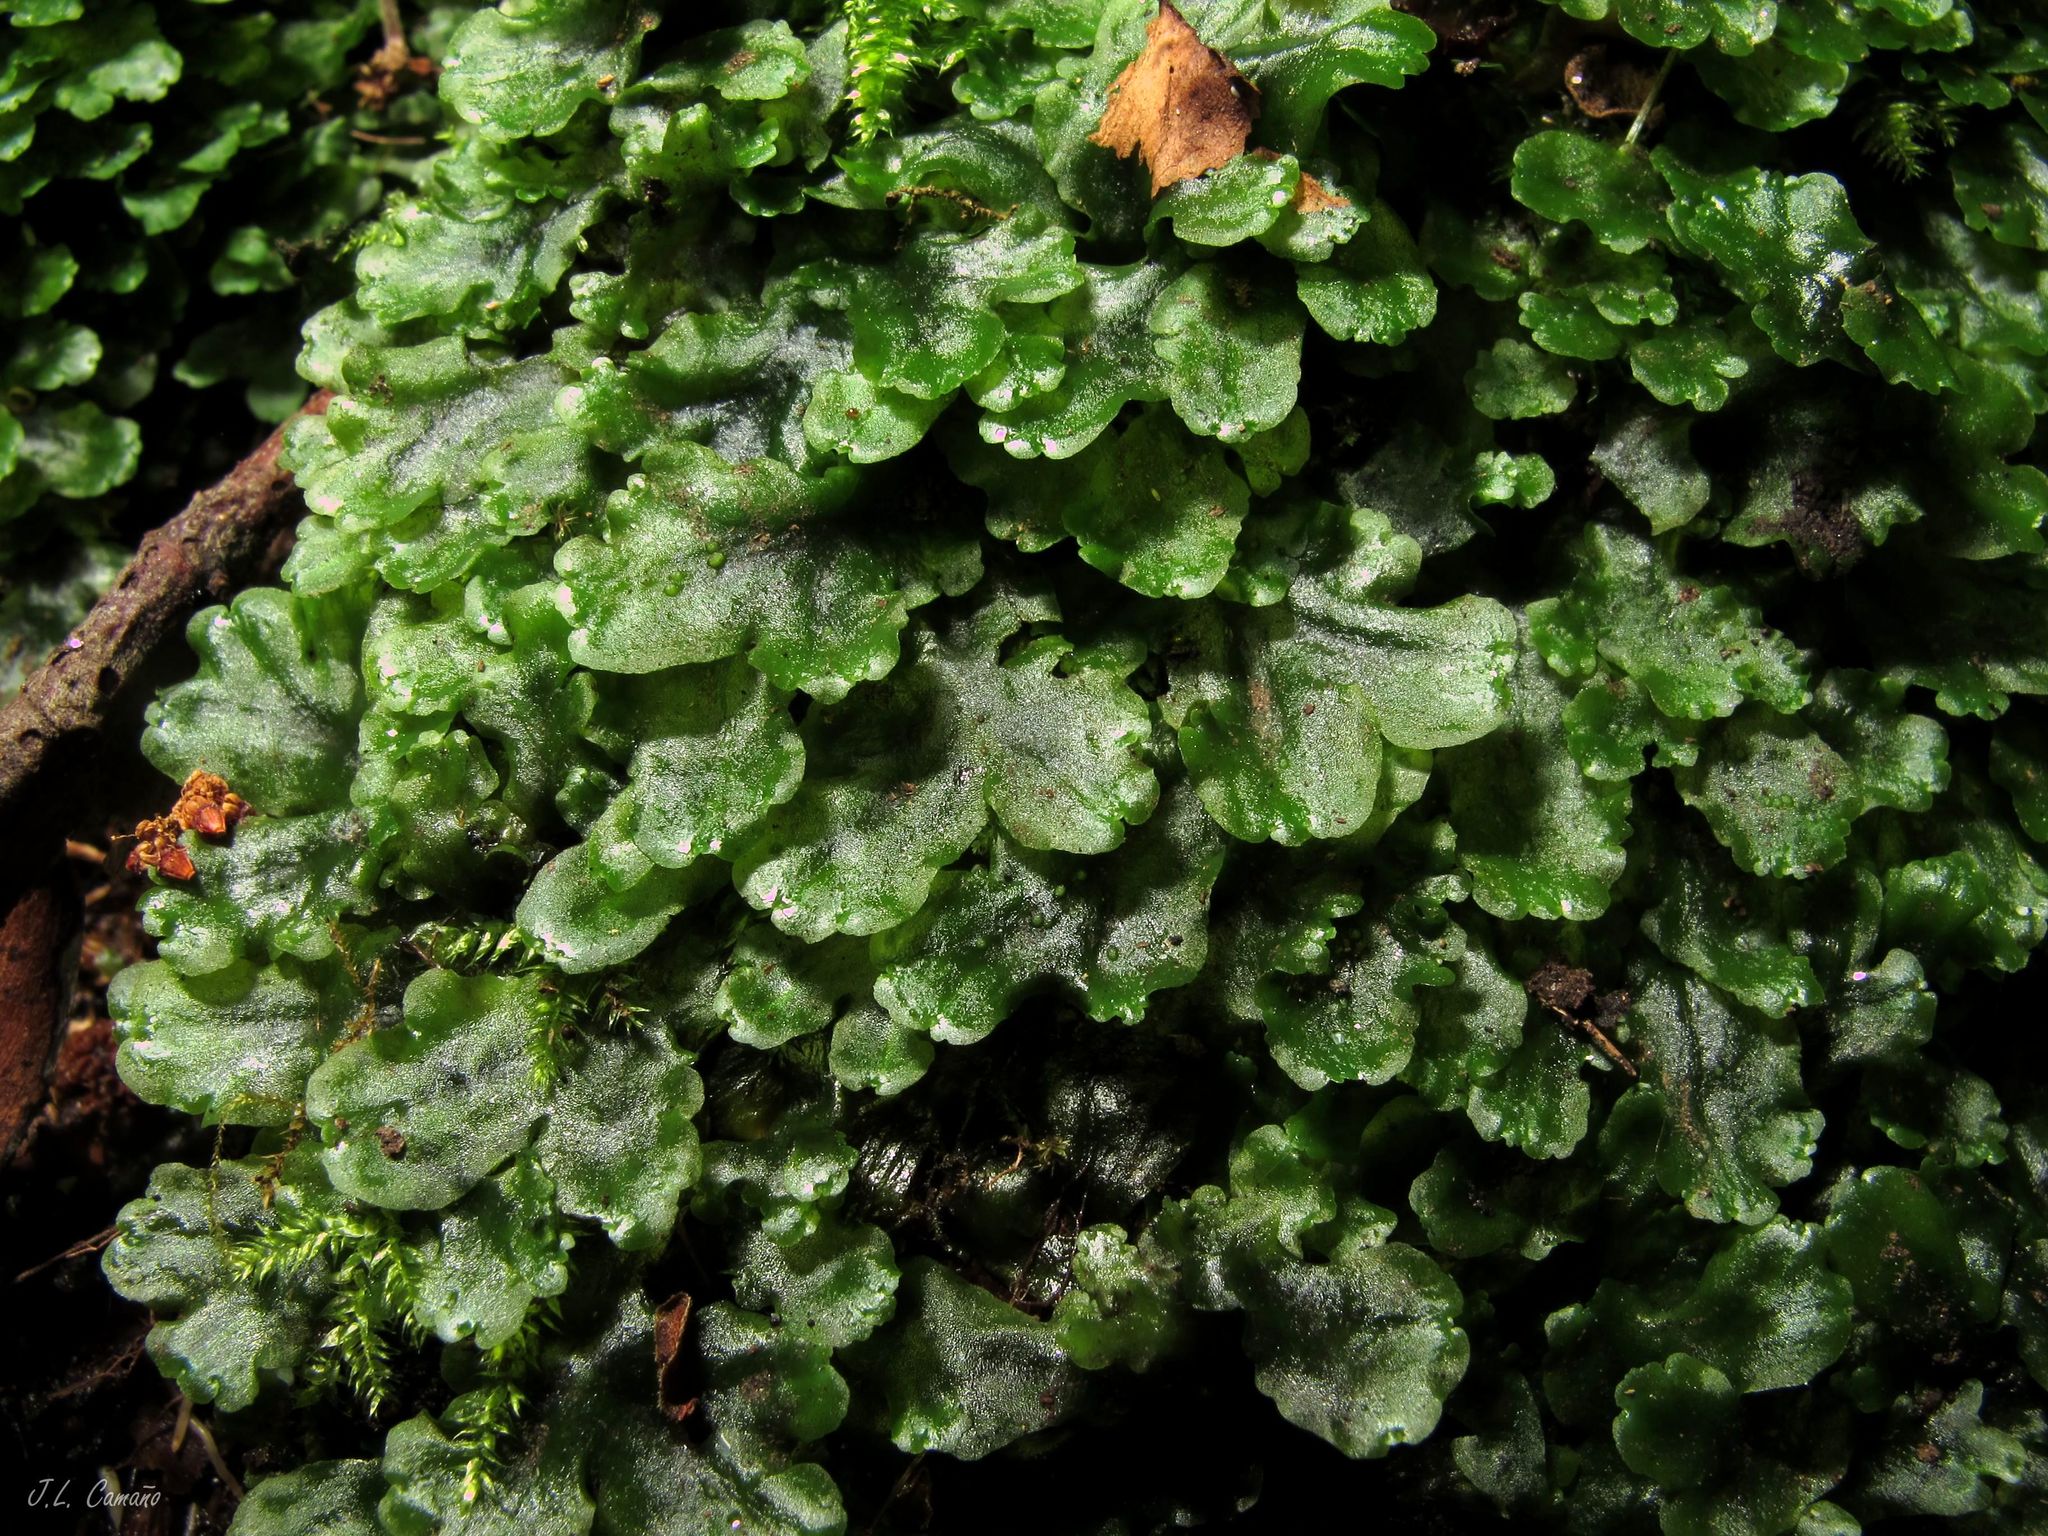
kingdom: Plantae
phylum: Marchantiophyta
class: Marchantiopsida
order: Marchantiales
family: Dumortieraceae
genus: Dumortiera
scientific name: Dumortiera hirsuta
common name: Dumortier's liverwort
